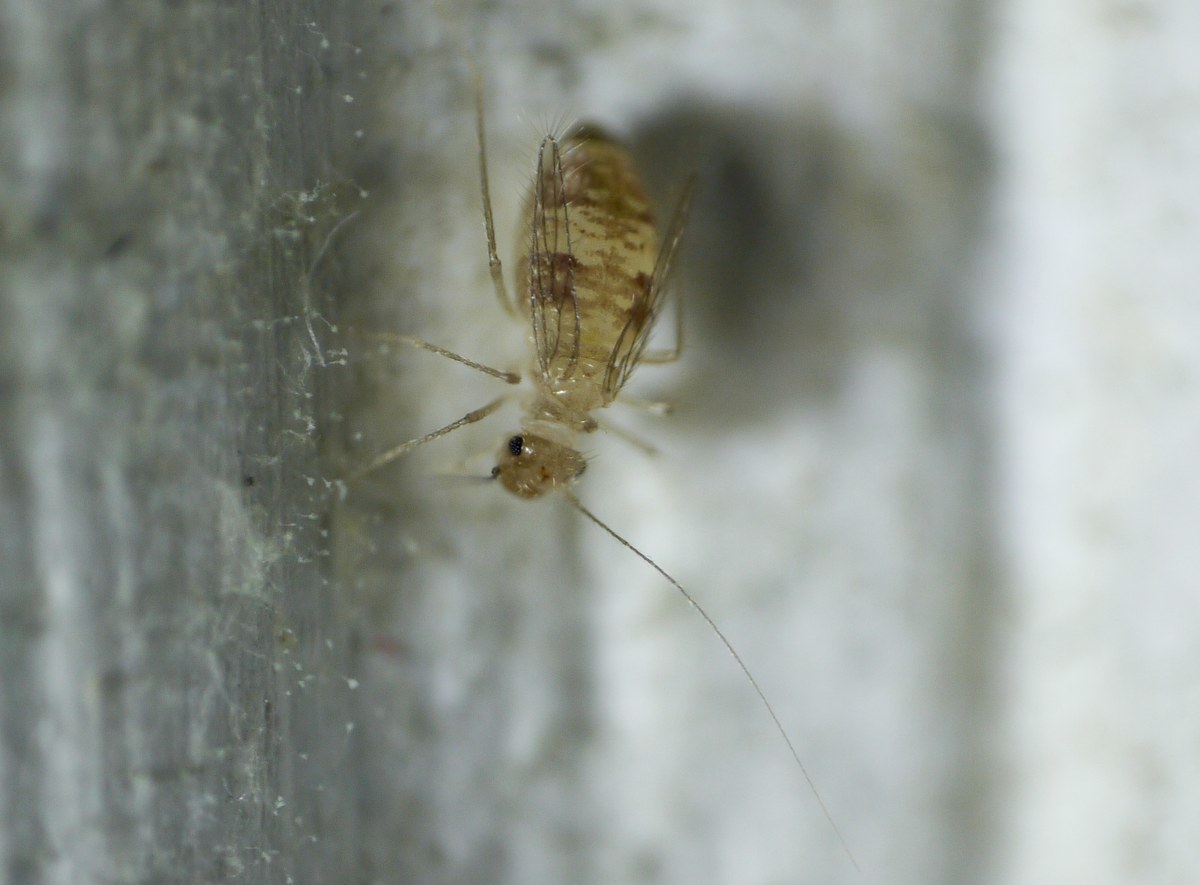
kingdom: Animalia
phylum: Arthropoda
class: Insecta
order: Psocodea
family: Psyllipsocidae
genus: Dorypteryx
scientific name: Dorypteryx domestica
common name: Cave barklouse
